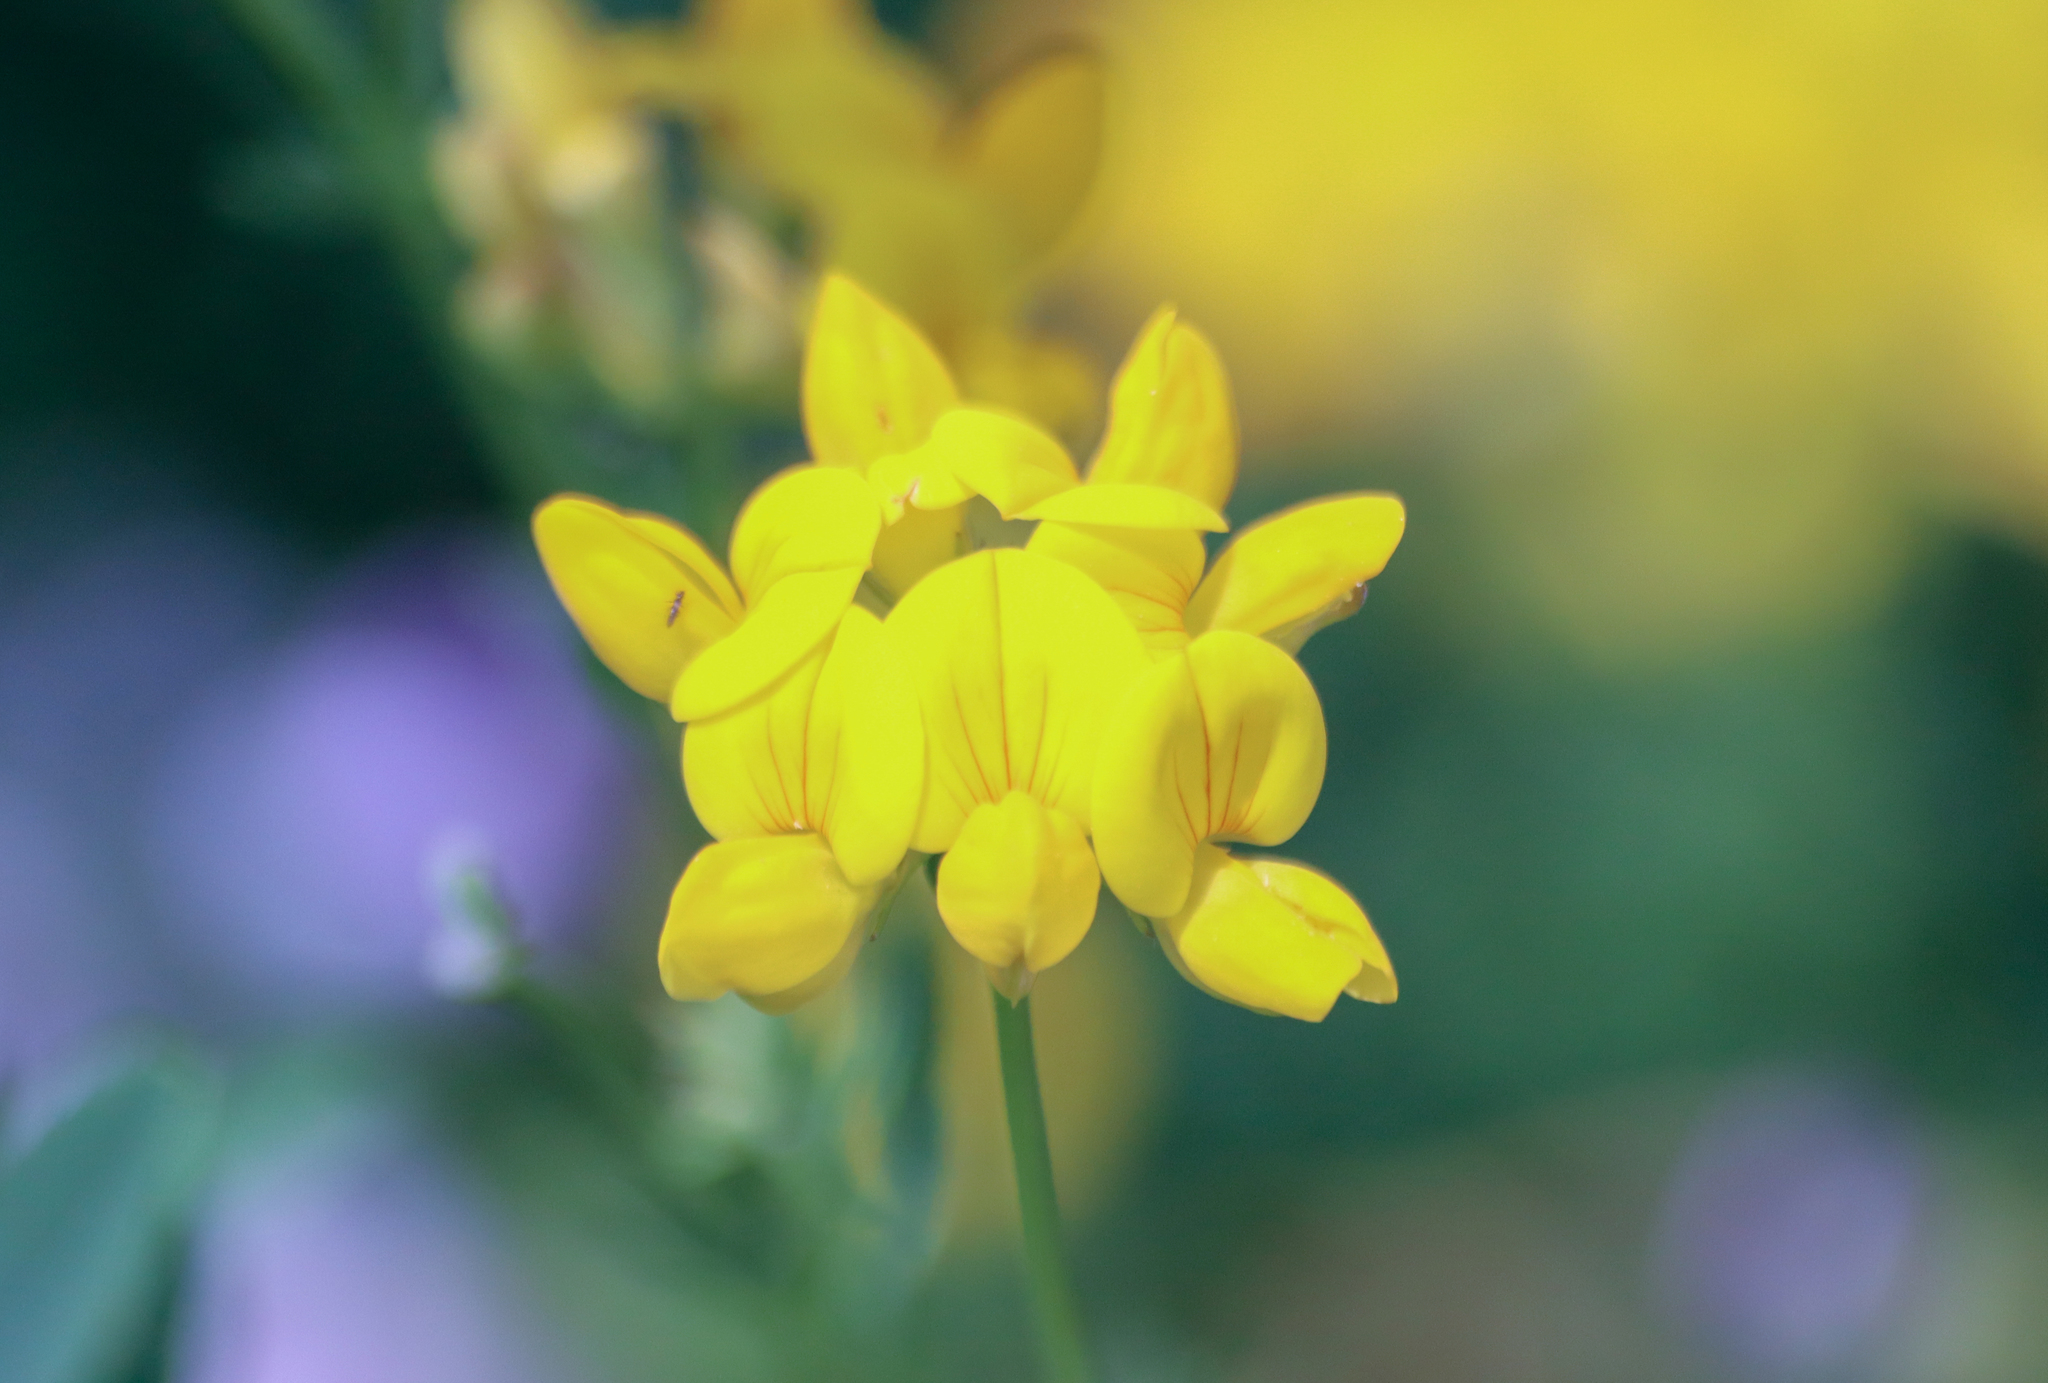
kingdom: Plantae
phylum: Tracheophyta
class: Magnoliopsida
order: Fabales
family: Fabaceae
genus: Lotus
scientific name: Lotus corniculatus
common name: Common bird's-foot-trefoil
